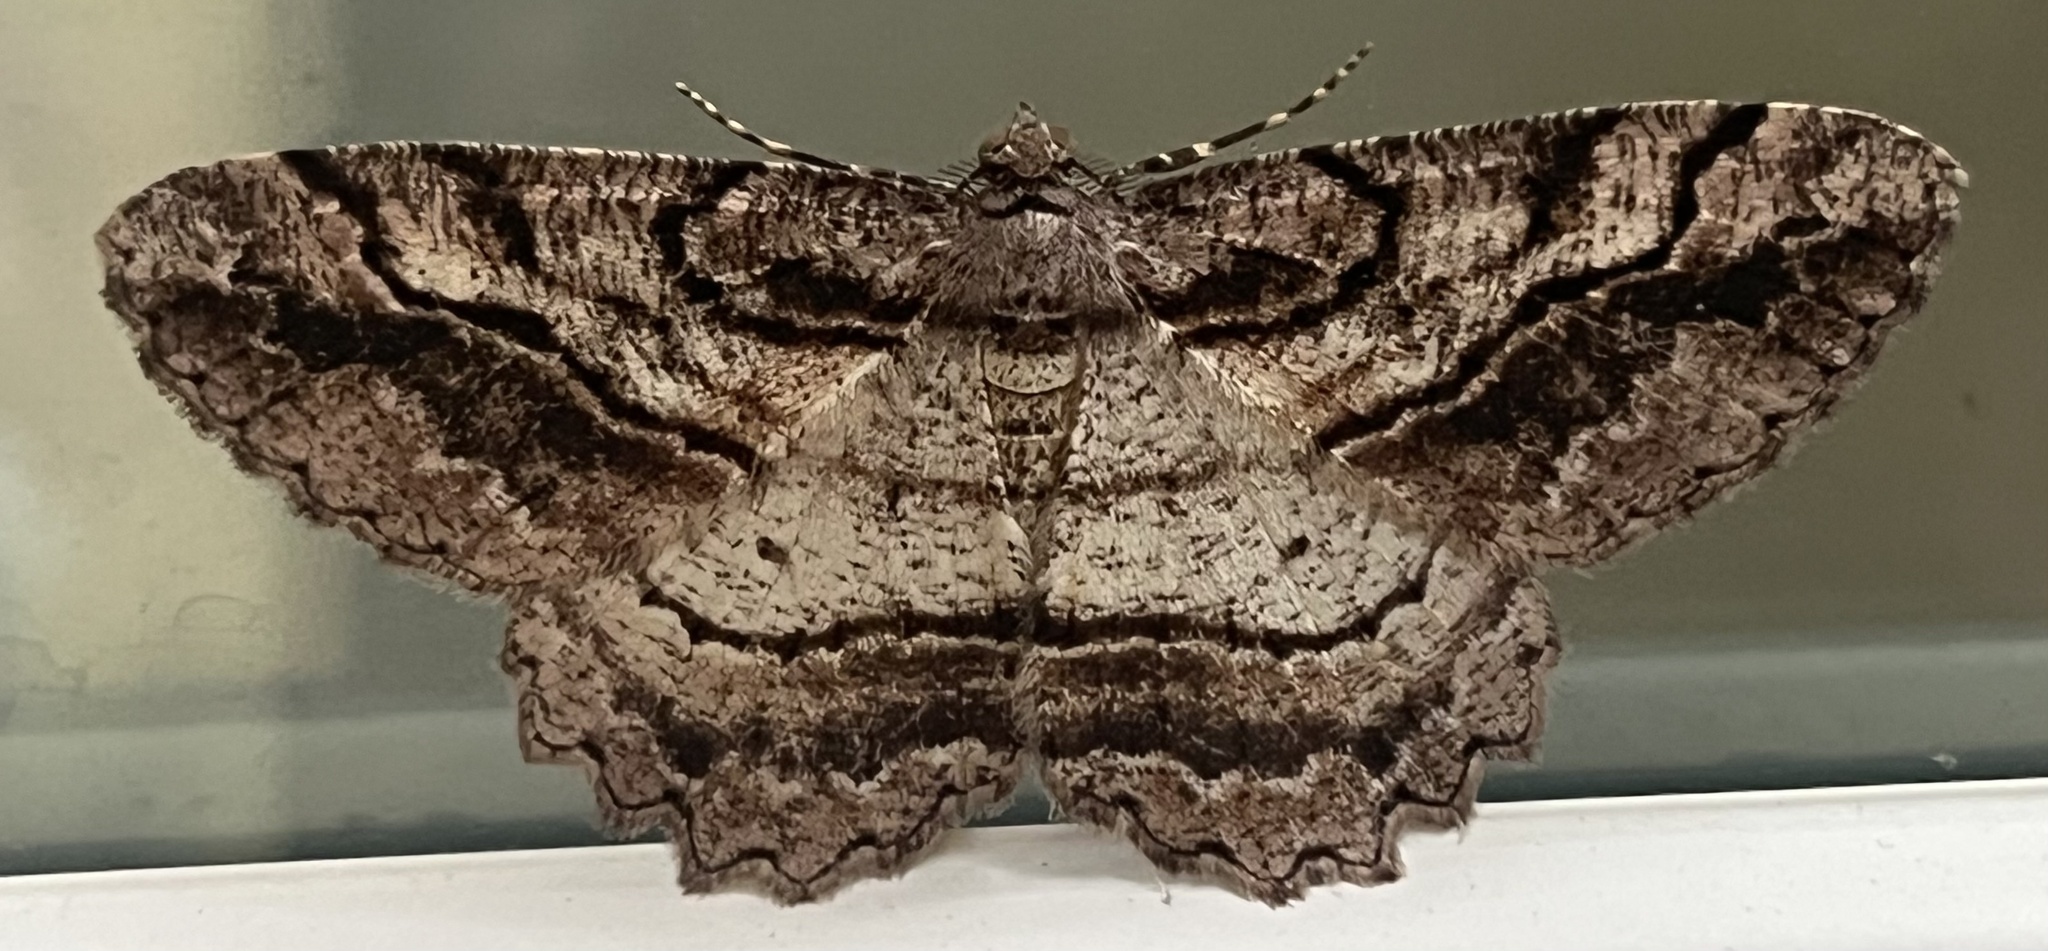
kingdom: Animalia
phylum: Arthropoda
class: Insecta
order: Lepidoptera
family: Geometridae
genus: Neoalcis
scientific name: Neoalcis californiaria
